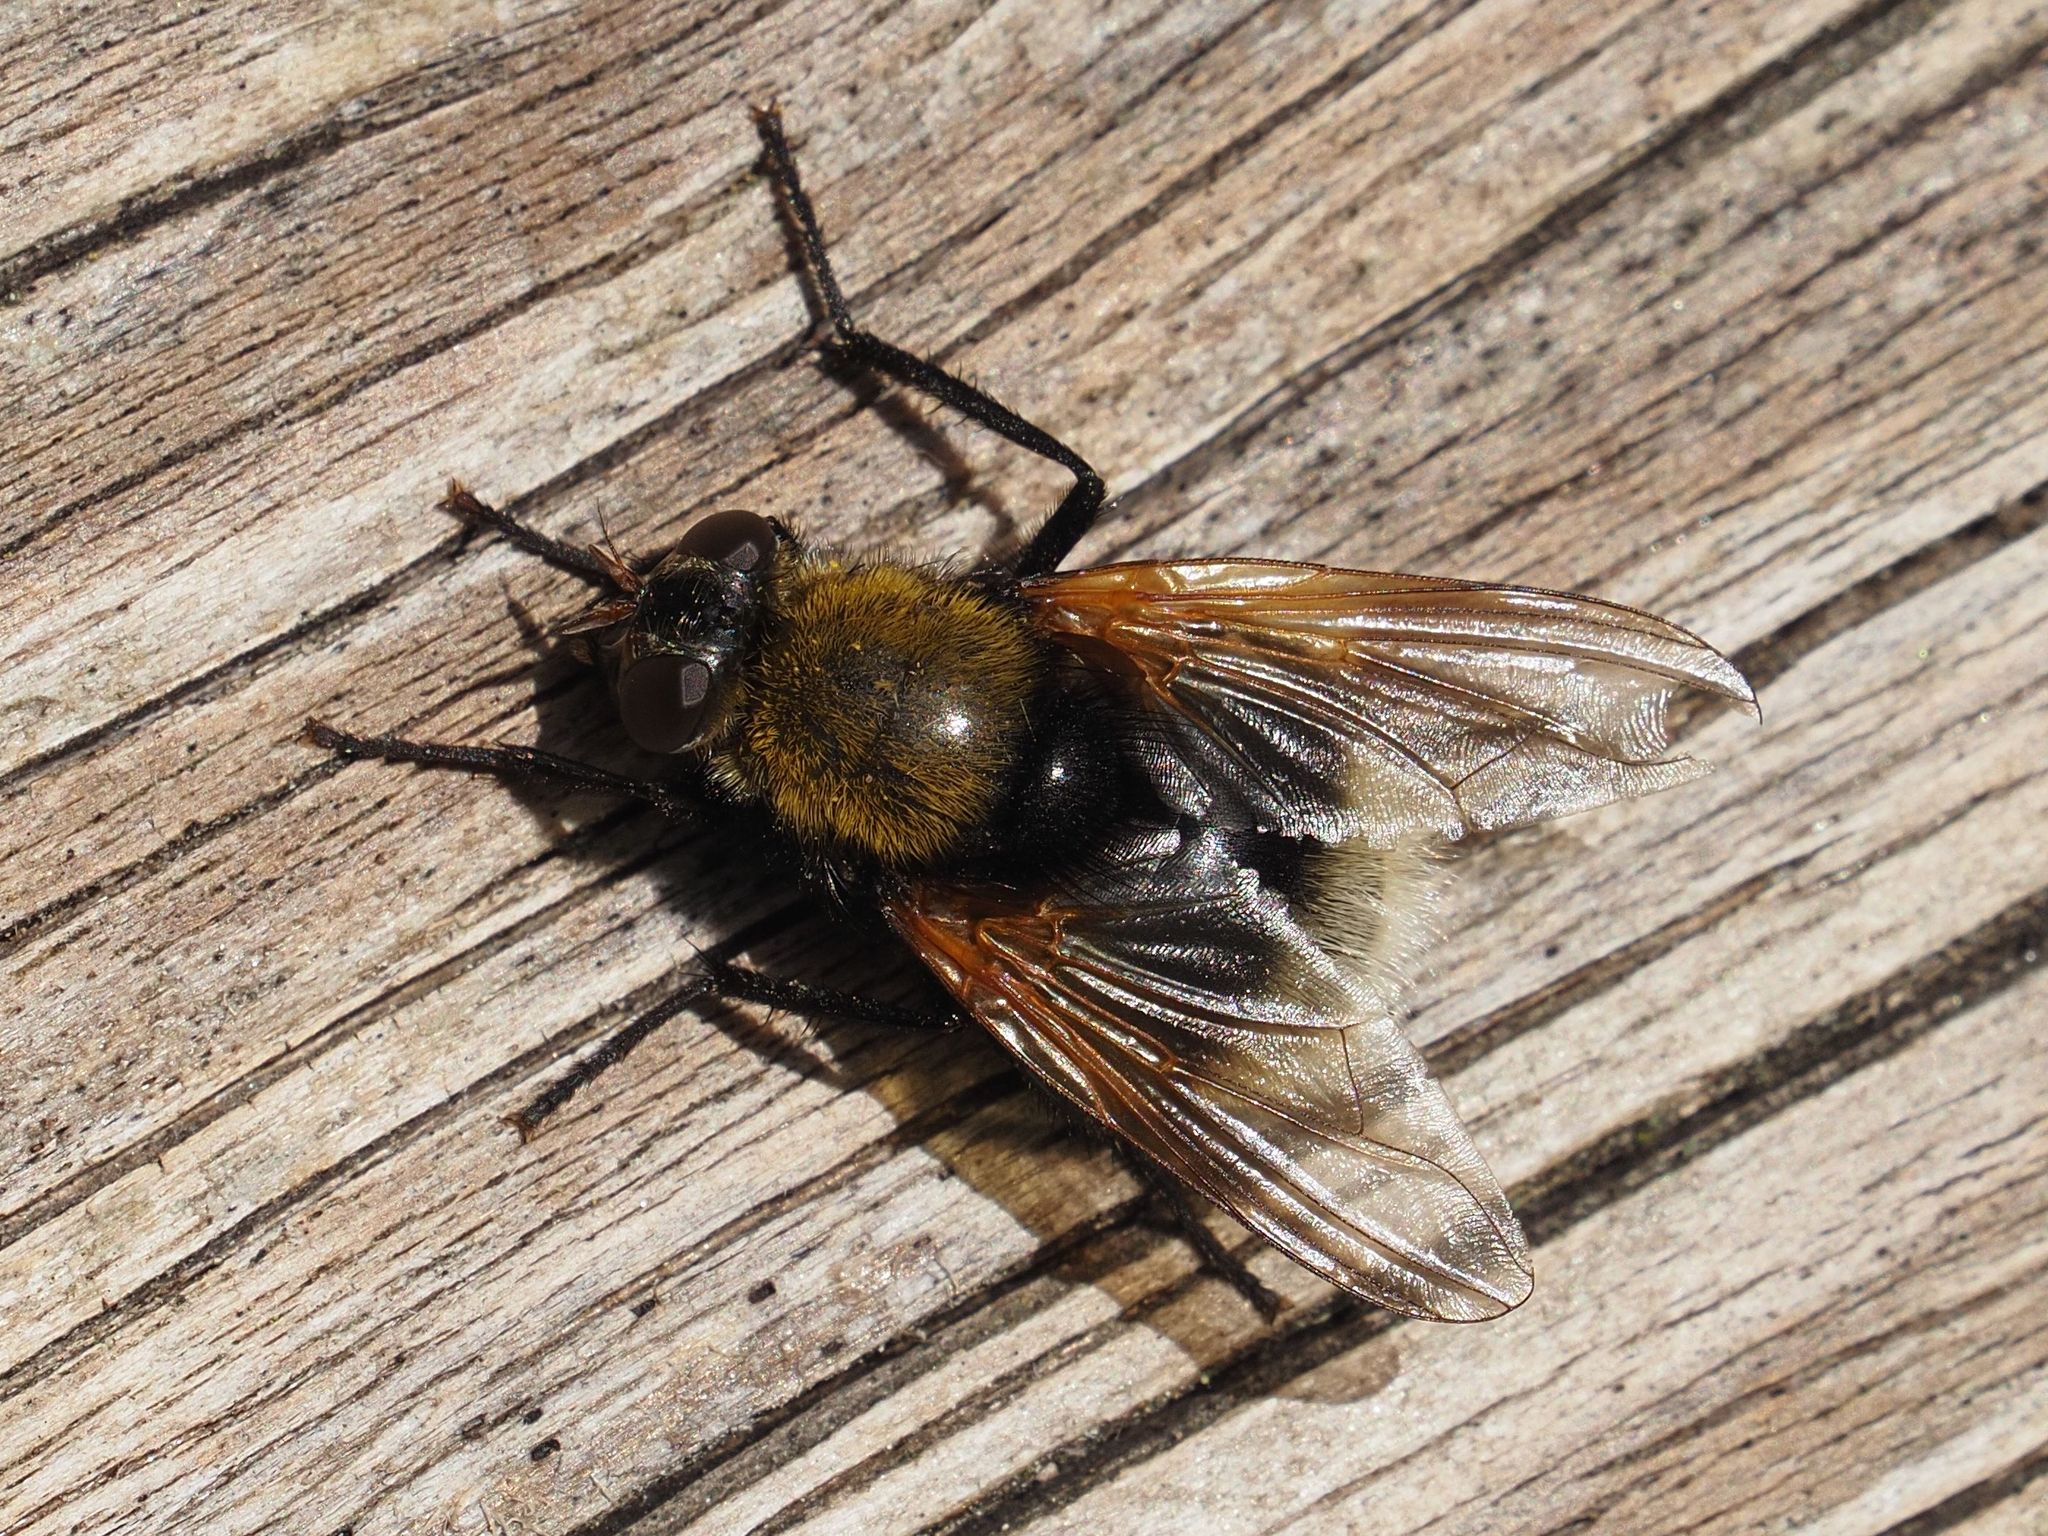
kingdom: Animalia
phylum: Arthropoda
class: Insecta
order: Diptera
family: Muscidae
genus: Mesembrina
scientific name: Mesembrina mystacea
